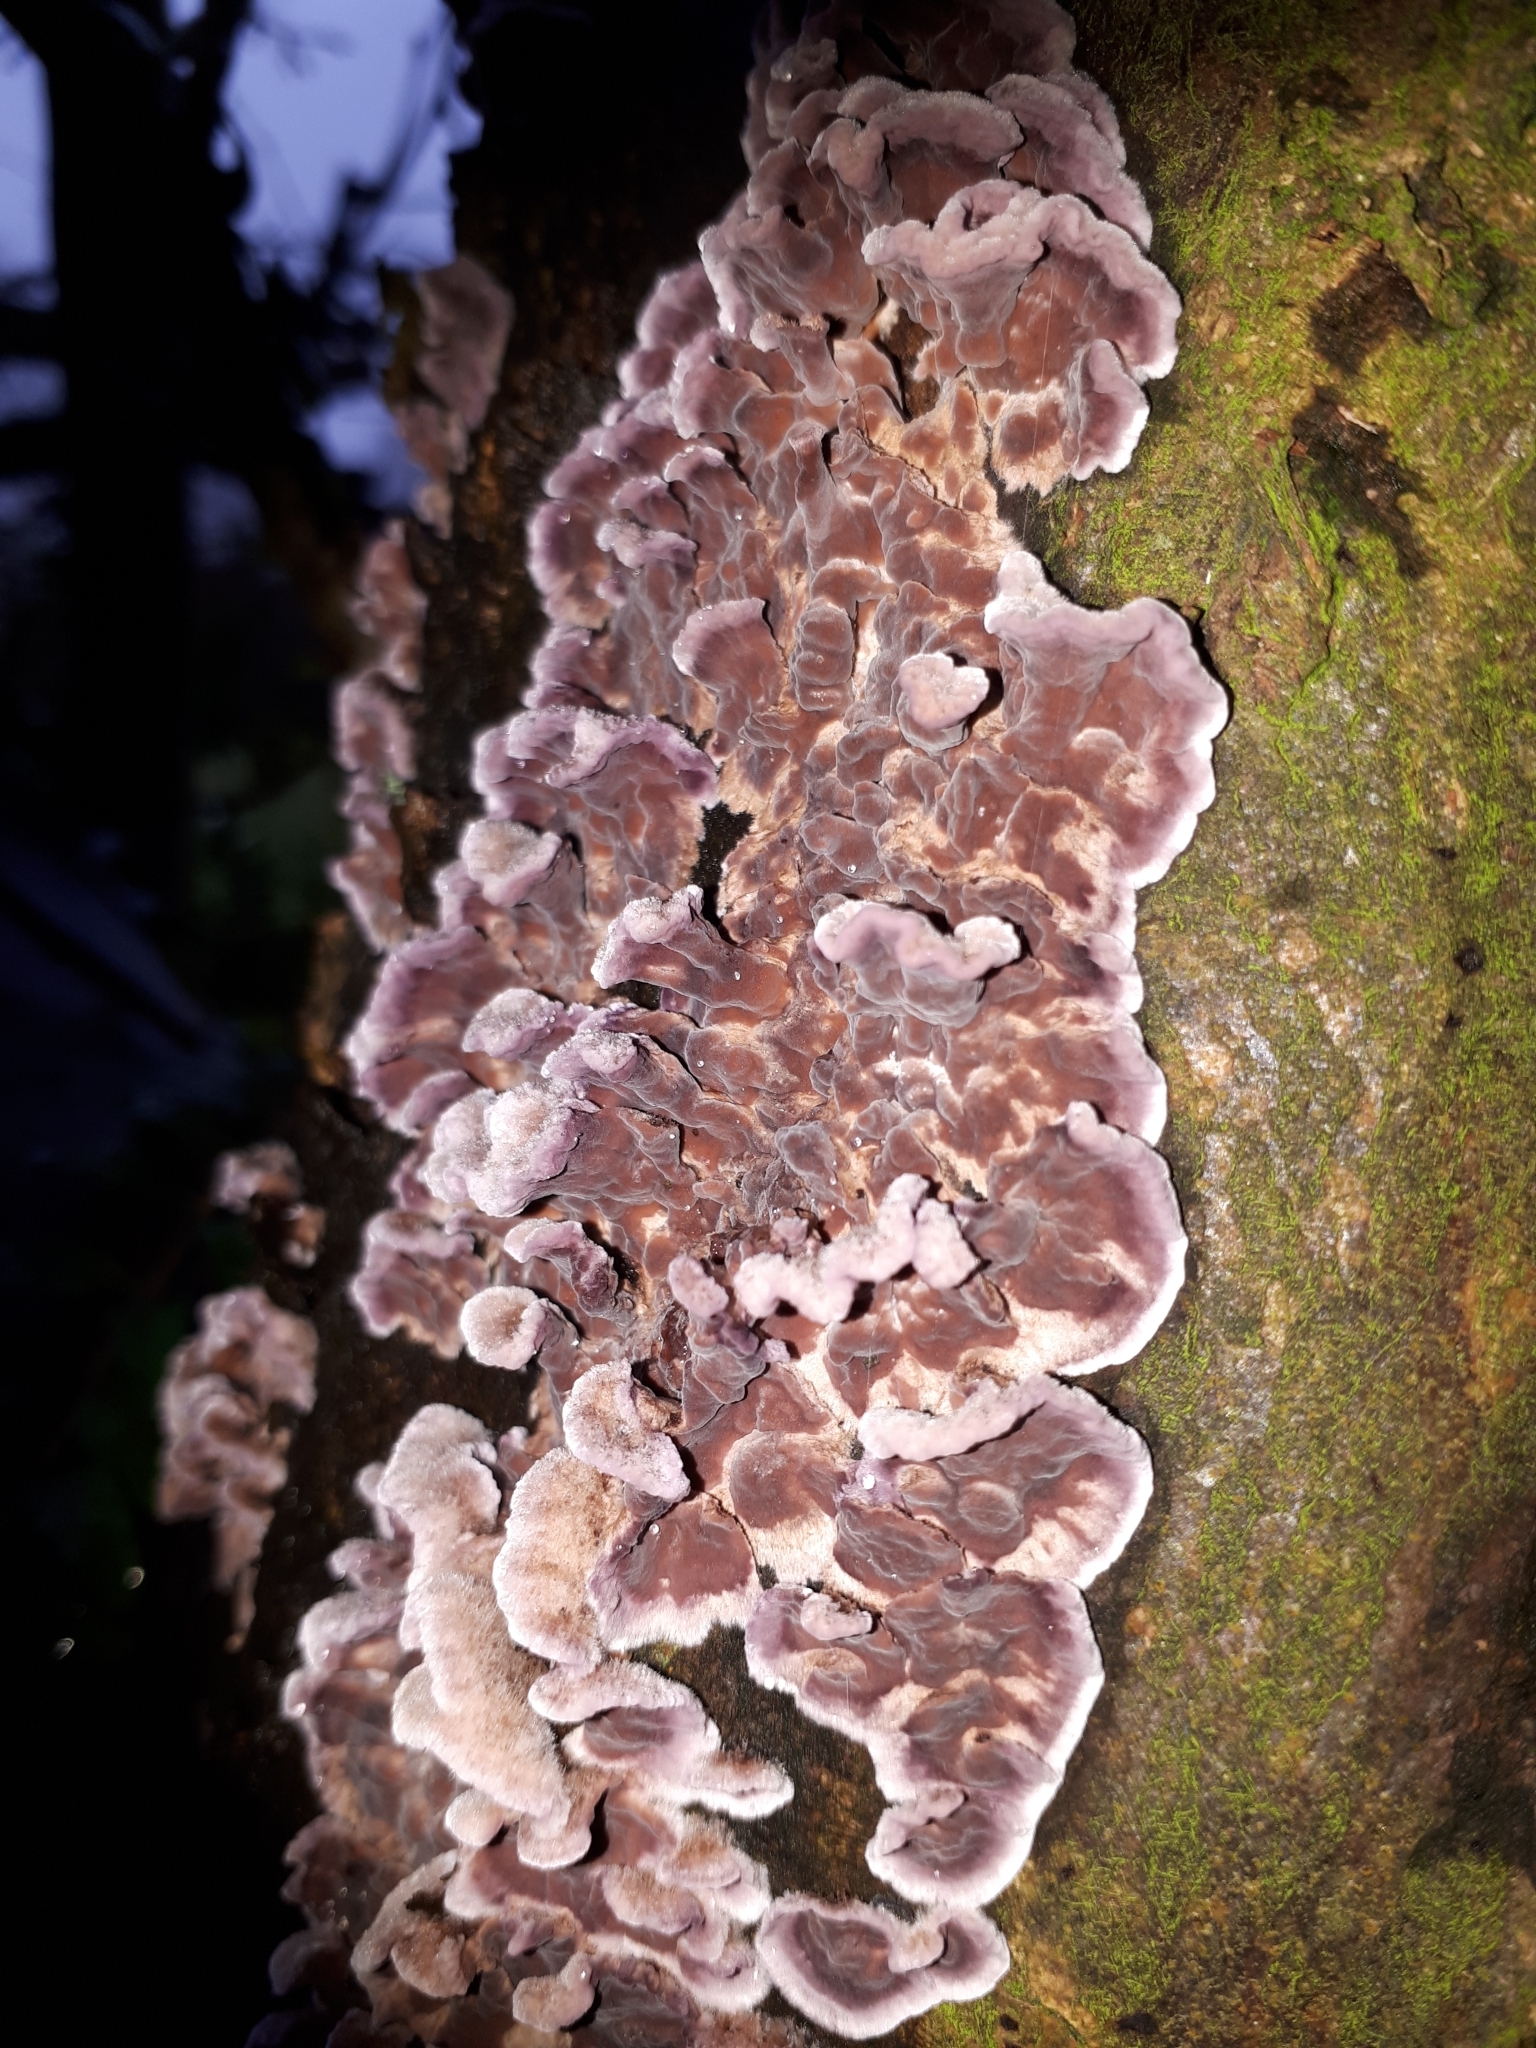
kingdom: Fungi
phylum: Basidiomycota
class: Agaricomycetes
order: Agaricales
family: Cyphellaceae
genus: Chondrostereum
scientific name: Chondrostereum purpureum
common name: Silver leaf disease
